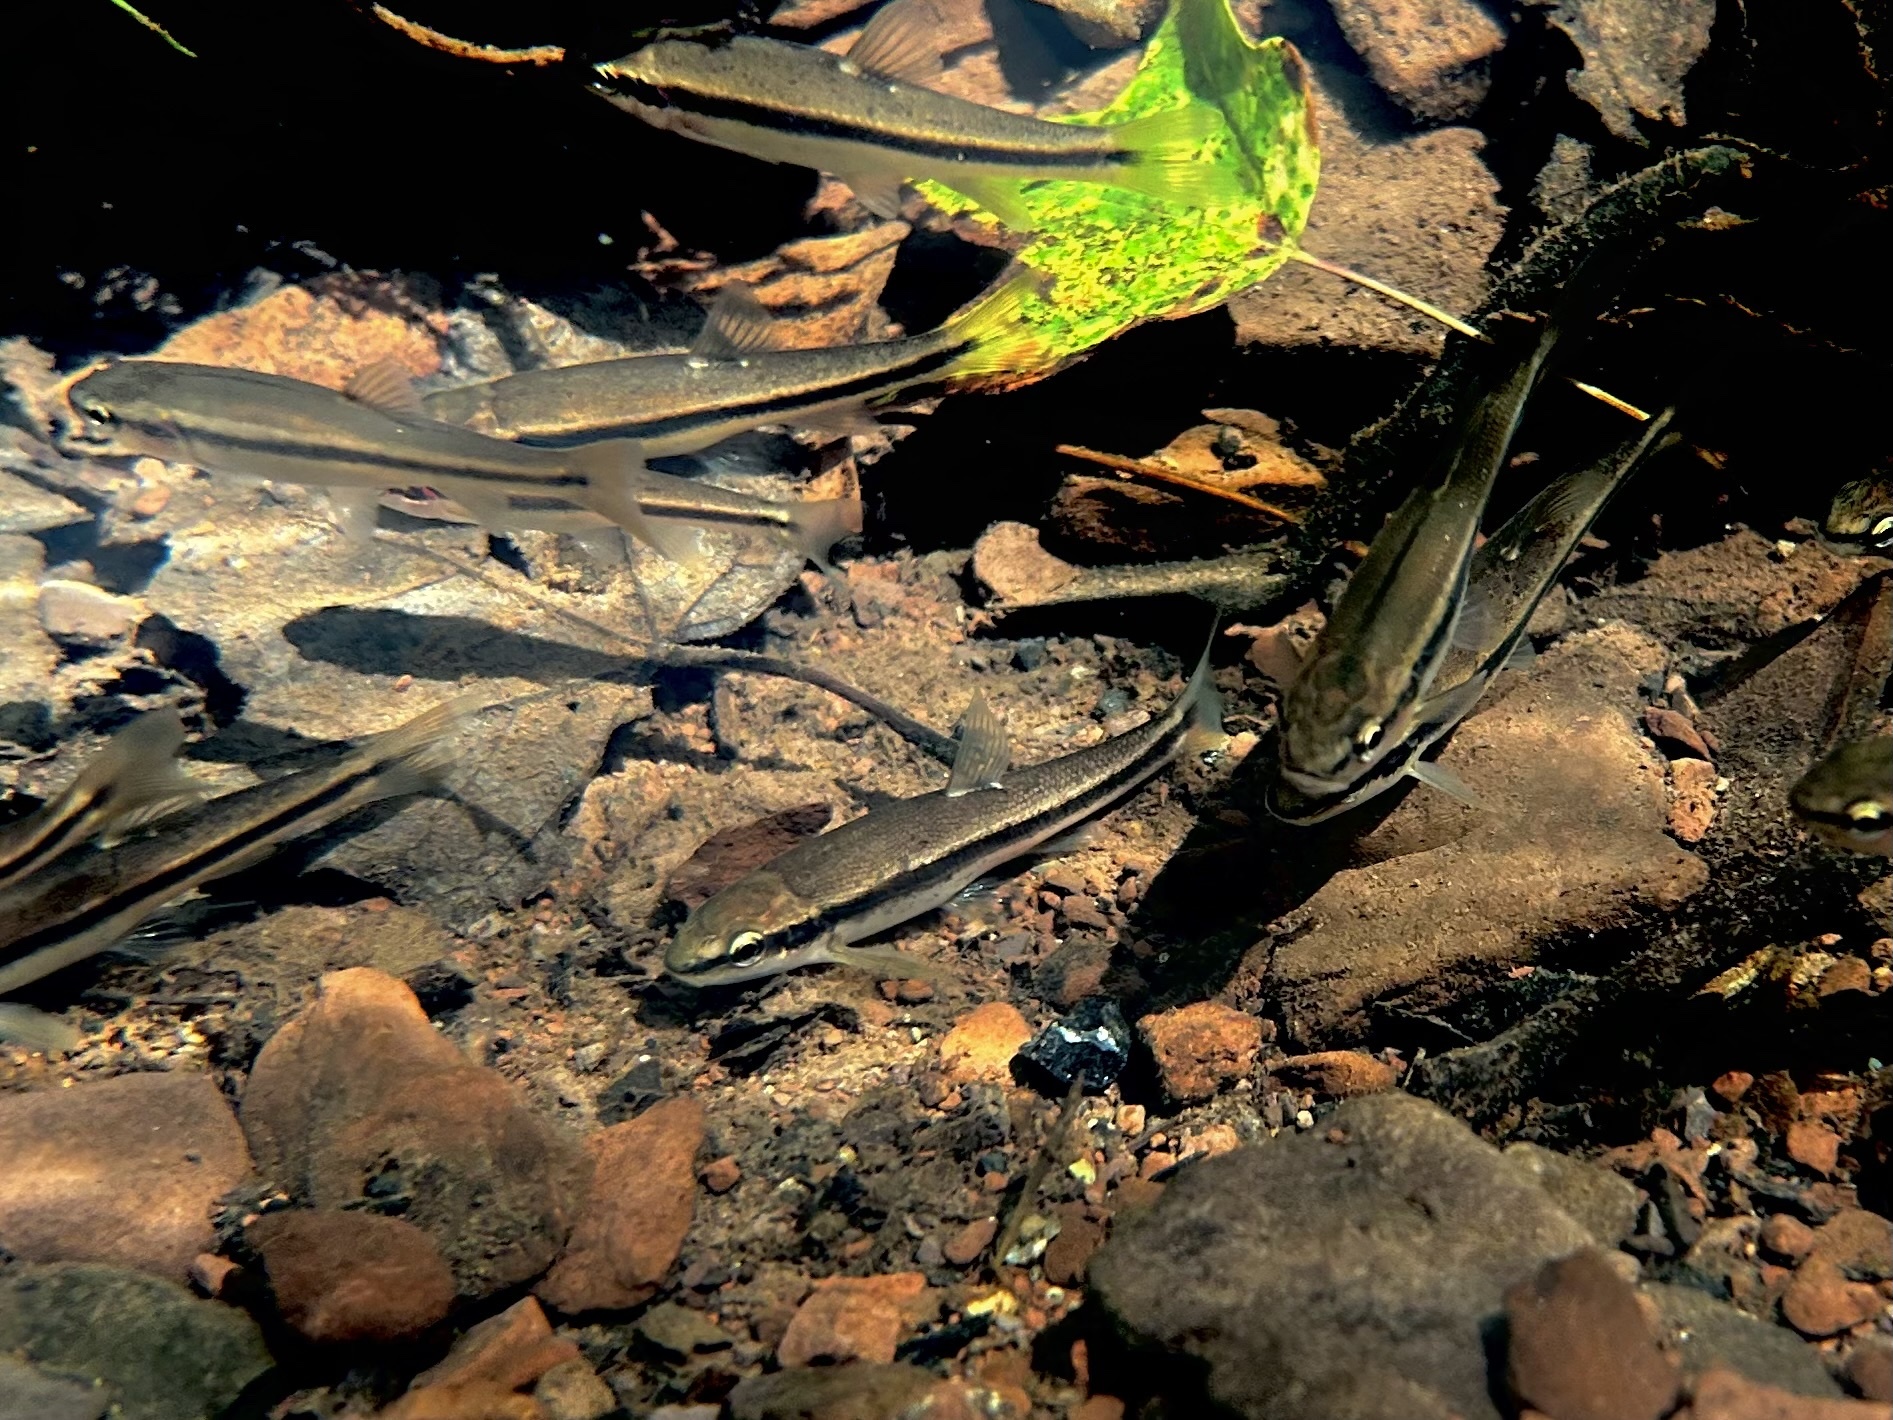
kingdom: Animalia
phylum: Chordata
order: Cypriniformes
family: Cyprinidae
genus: Rhinichthys
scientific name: Rhinichthys atratulus
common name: Eastern blacknose dace
